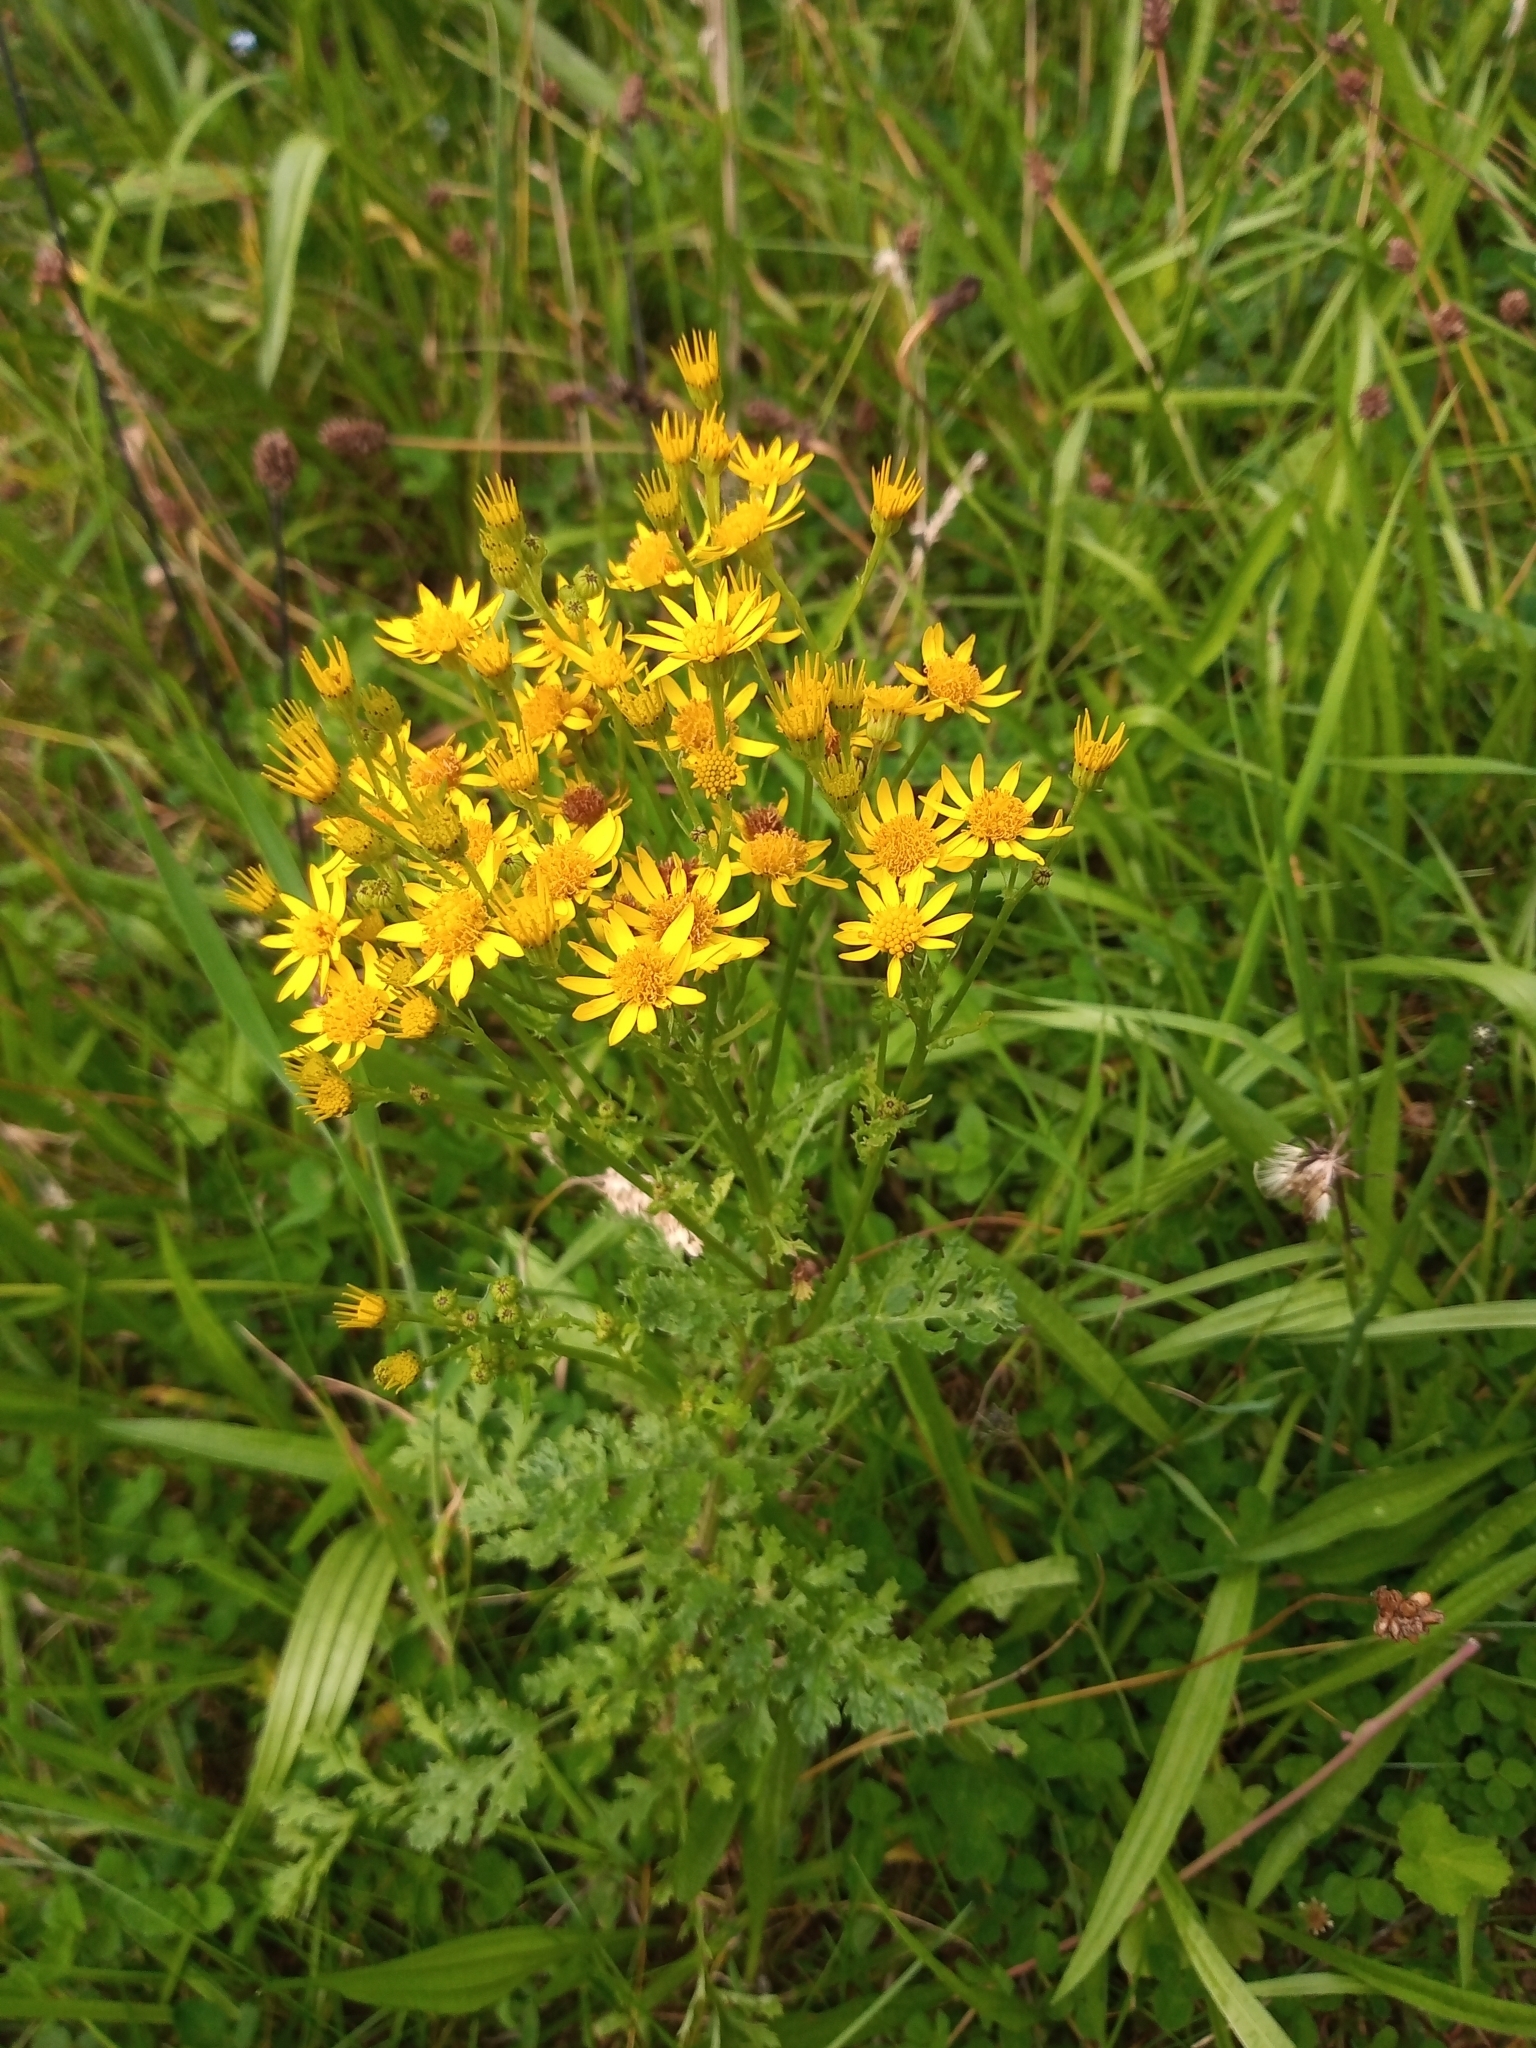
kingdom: Plantae
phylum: Tracheophyta
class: Magnoliopsida
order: Asterales
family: Asteraceae
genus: Jacobaea
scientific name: Jacobaea vulgaris
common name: Stinking willie
